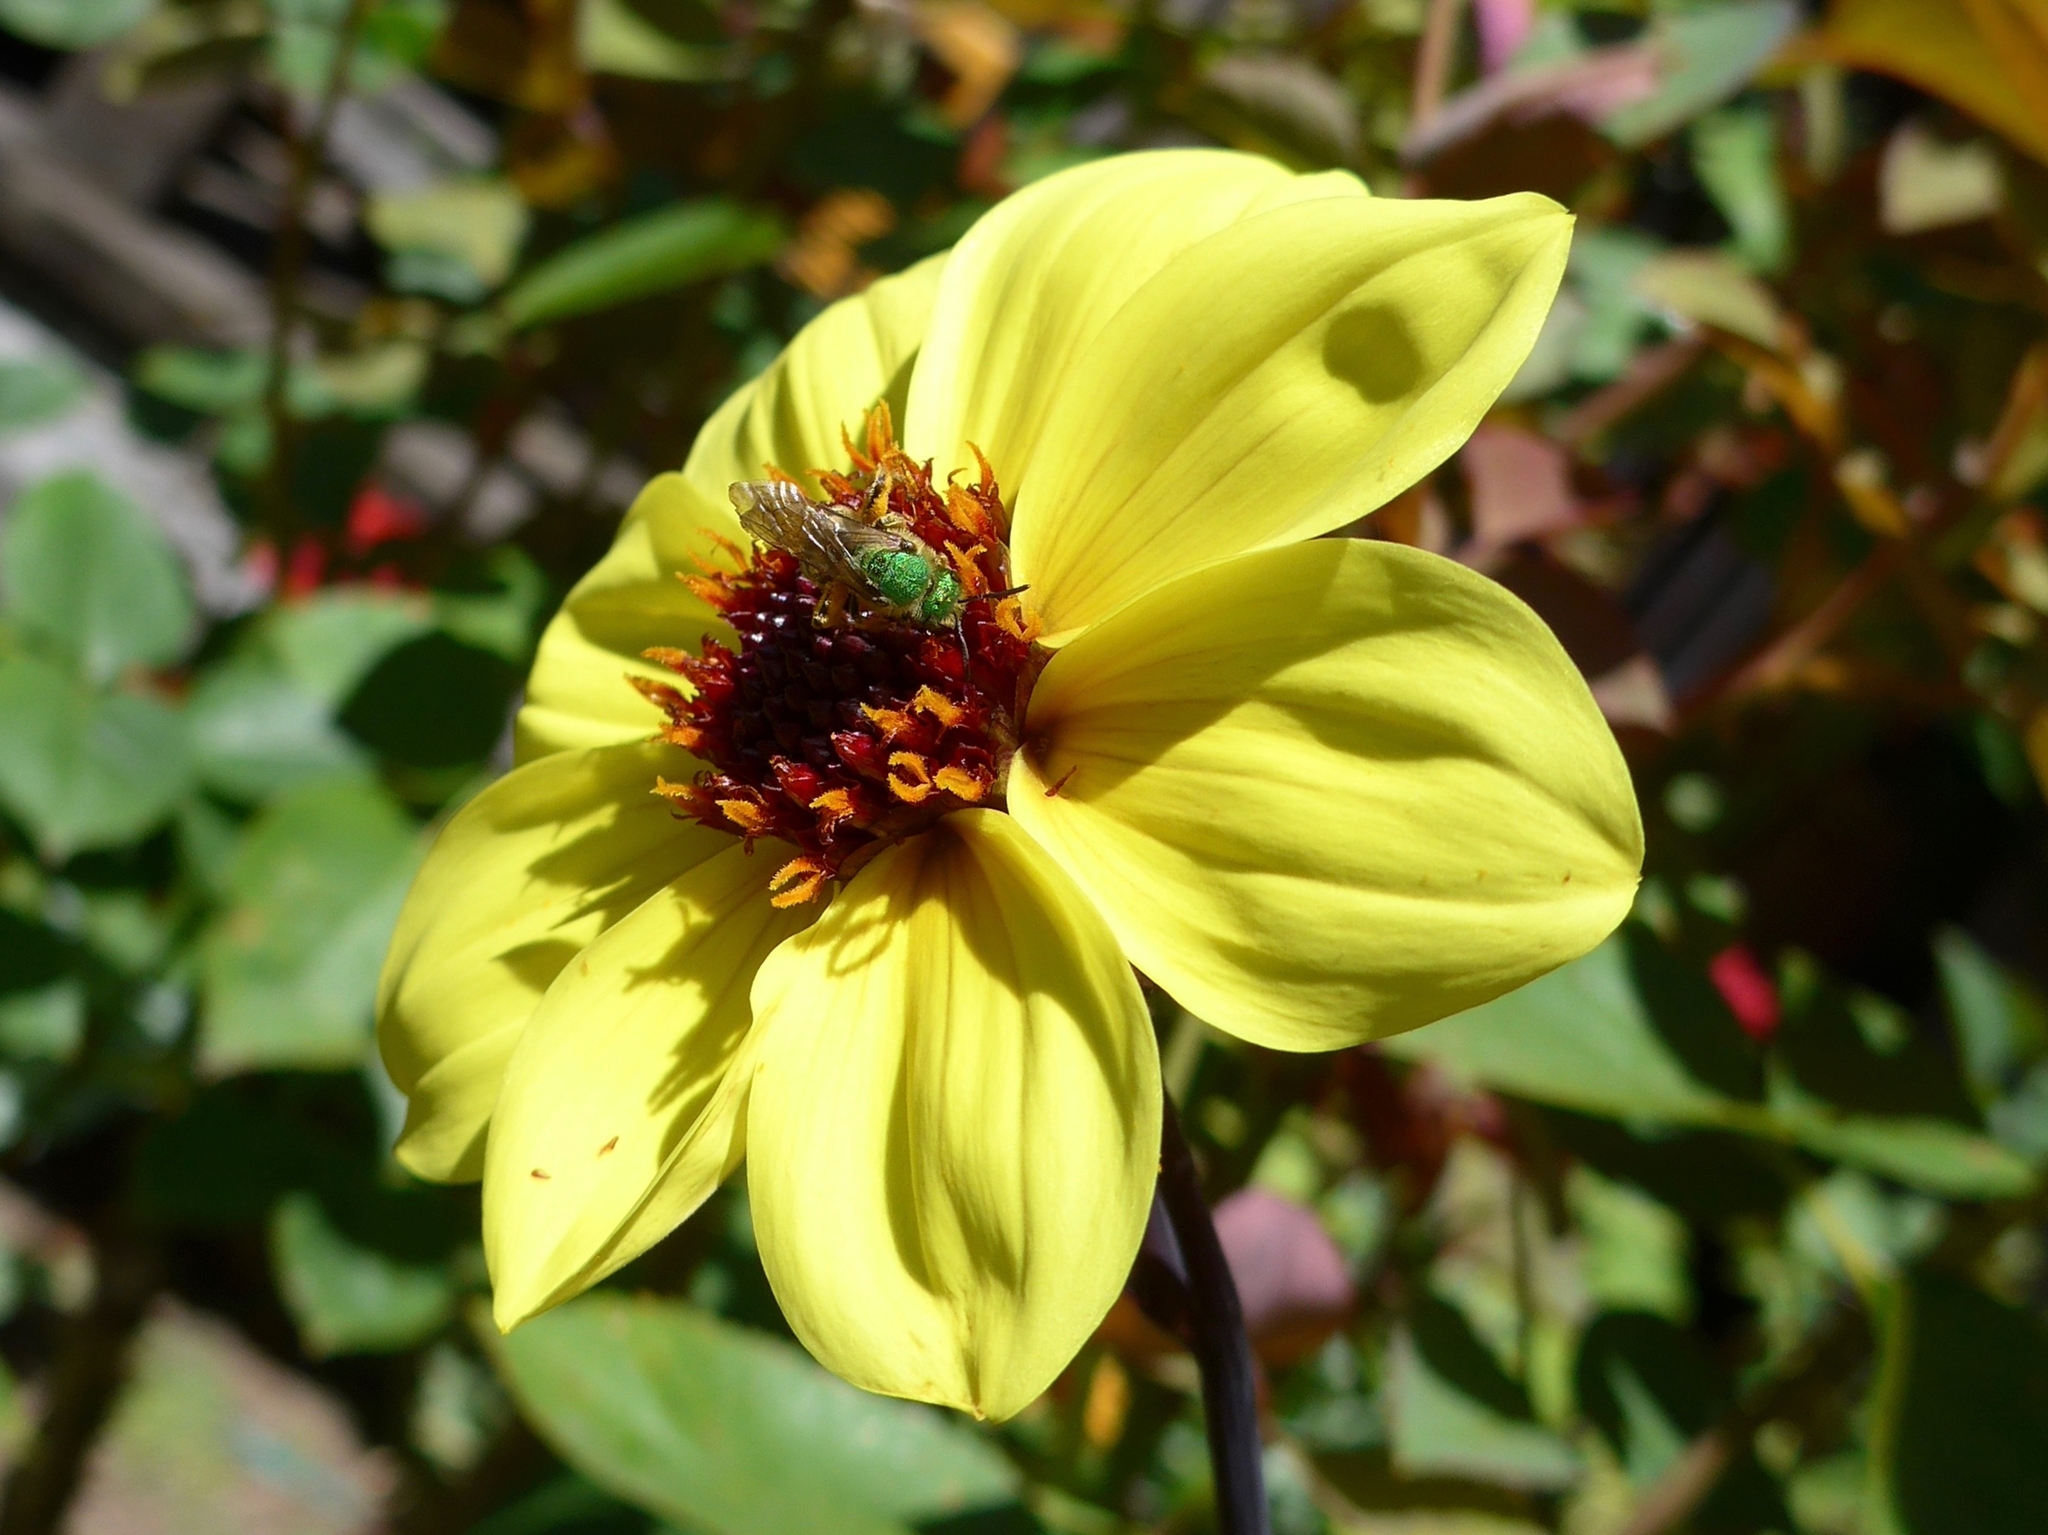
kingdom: Animalia
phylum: Arthropoda
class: Insecta
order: Hymenoptera
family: Halictidae
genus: Agapostemon
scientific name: Agapostemon virescens
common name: Bicolored striped sweat bee
